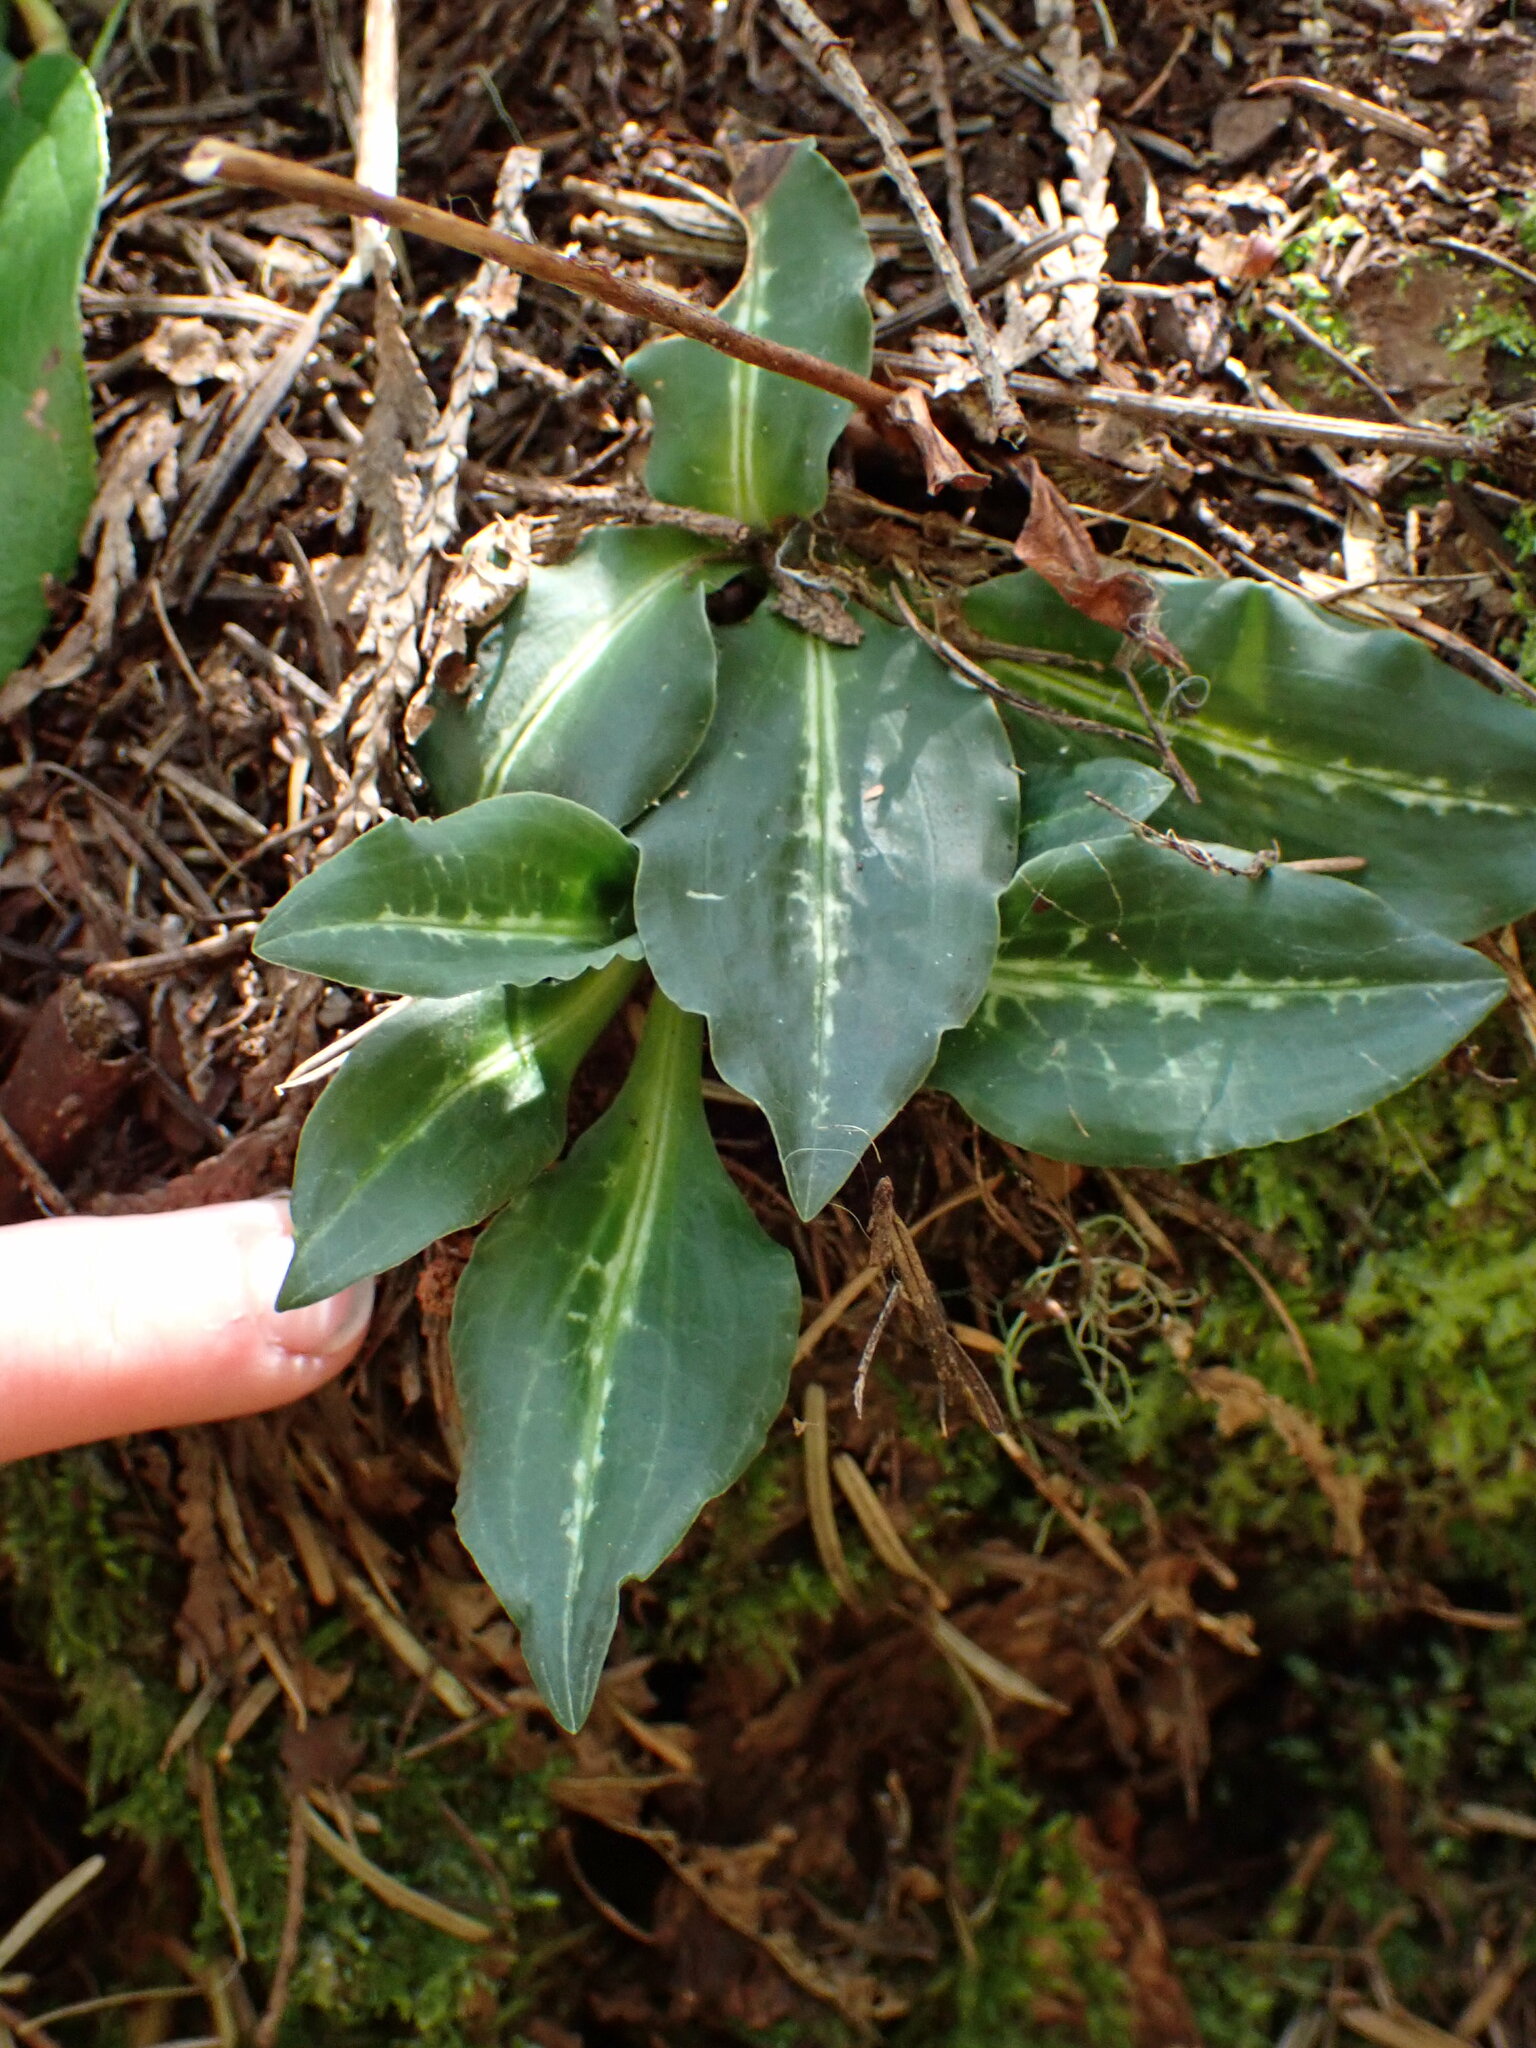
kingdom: Plantae
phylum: Tracheophyta
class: Liliopsida
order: Asparagales
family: Orchidaceae
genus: Goodyera
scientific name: Goodyera oblongifolia
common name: Giant rattlesnake-plantain
